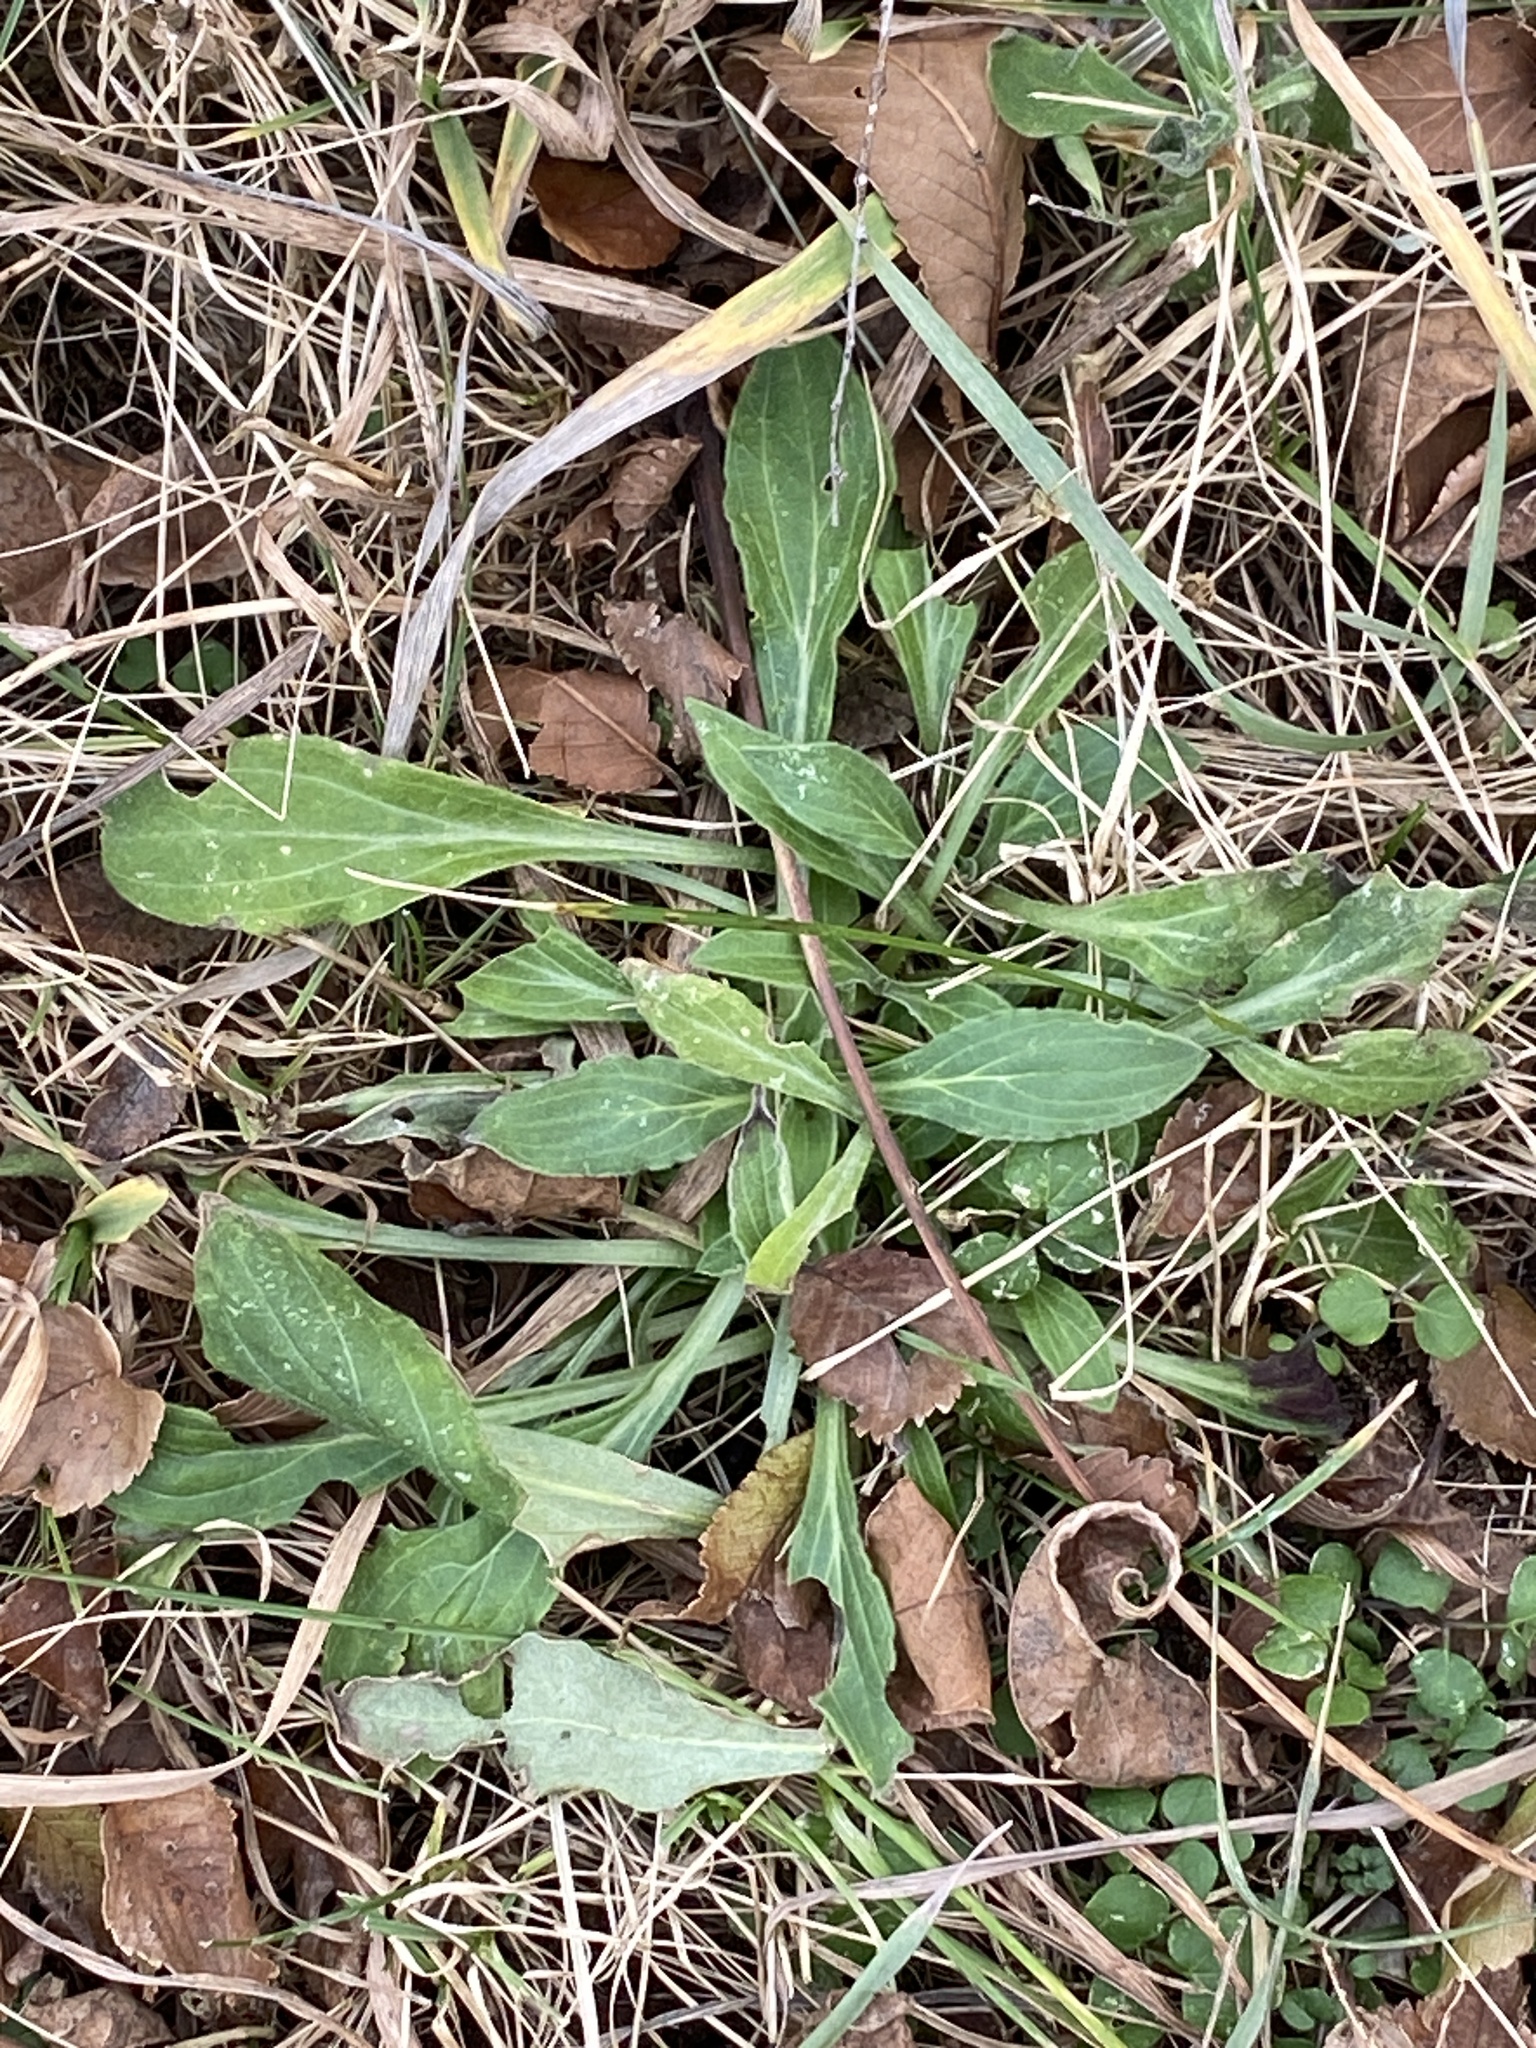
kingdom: Plantae
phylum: Tracheophyta
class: Magnoliopsida
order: Caryophyllales
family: Caryophyllaceae
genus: Silene
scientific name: Silene latifolia
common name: White campion
